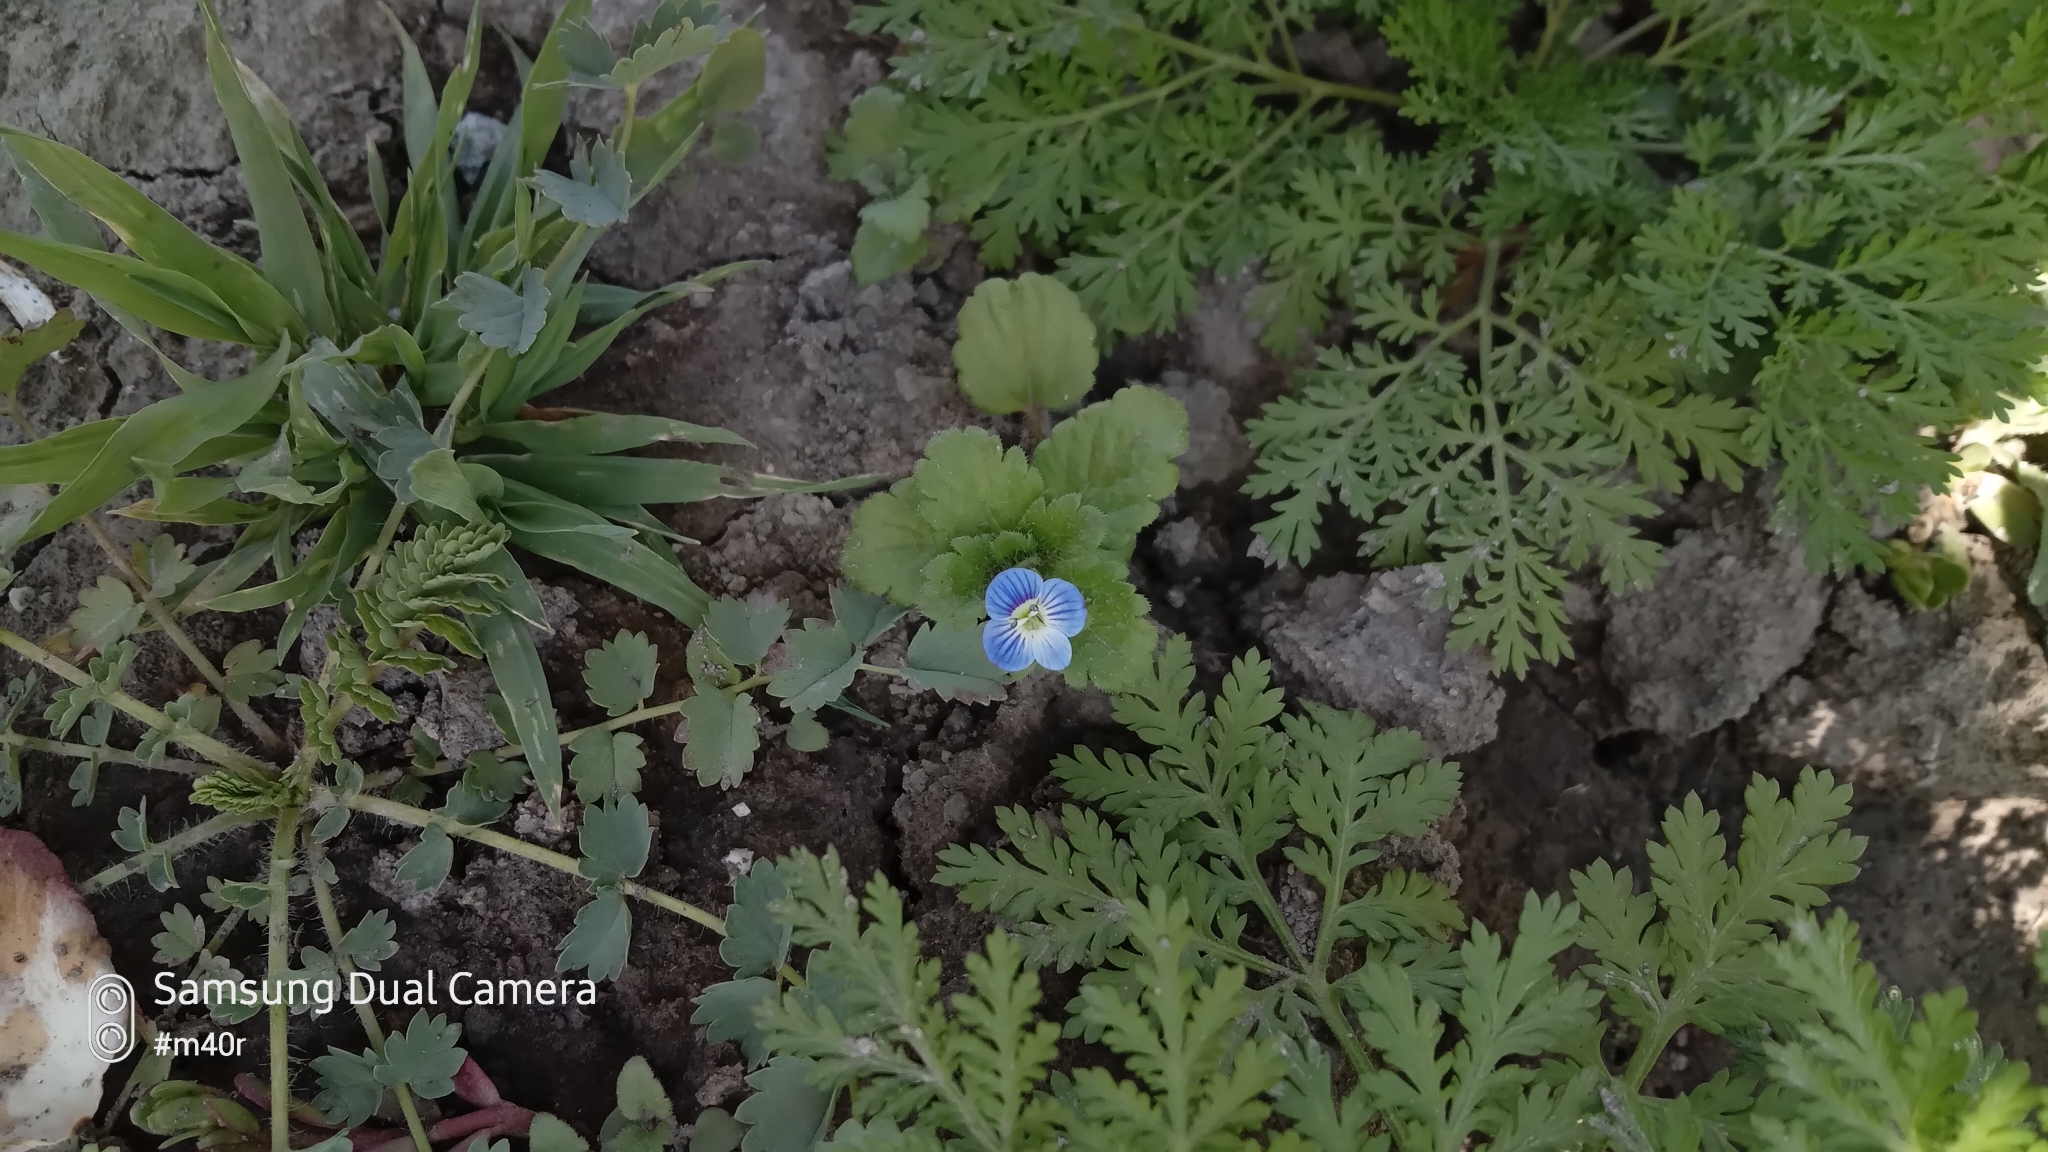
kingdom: Plantae
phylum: Tracheophyta
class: Magnoliopsida
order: Lamiales
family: Plantaginaceae
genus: Veronica
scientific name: Veronica persica
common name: Common field-speedwell
